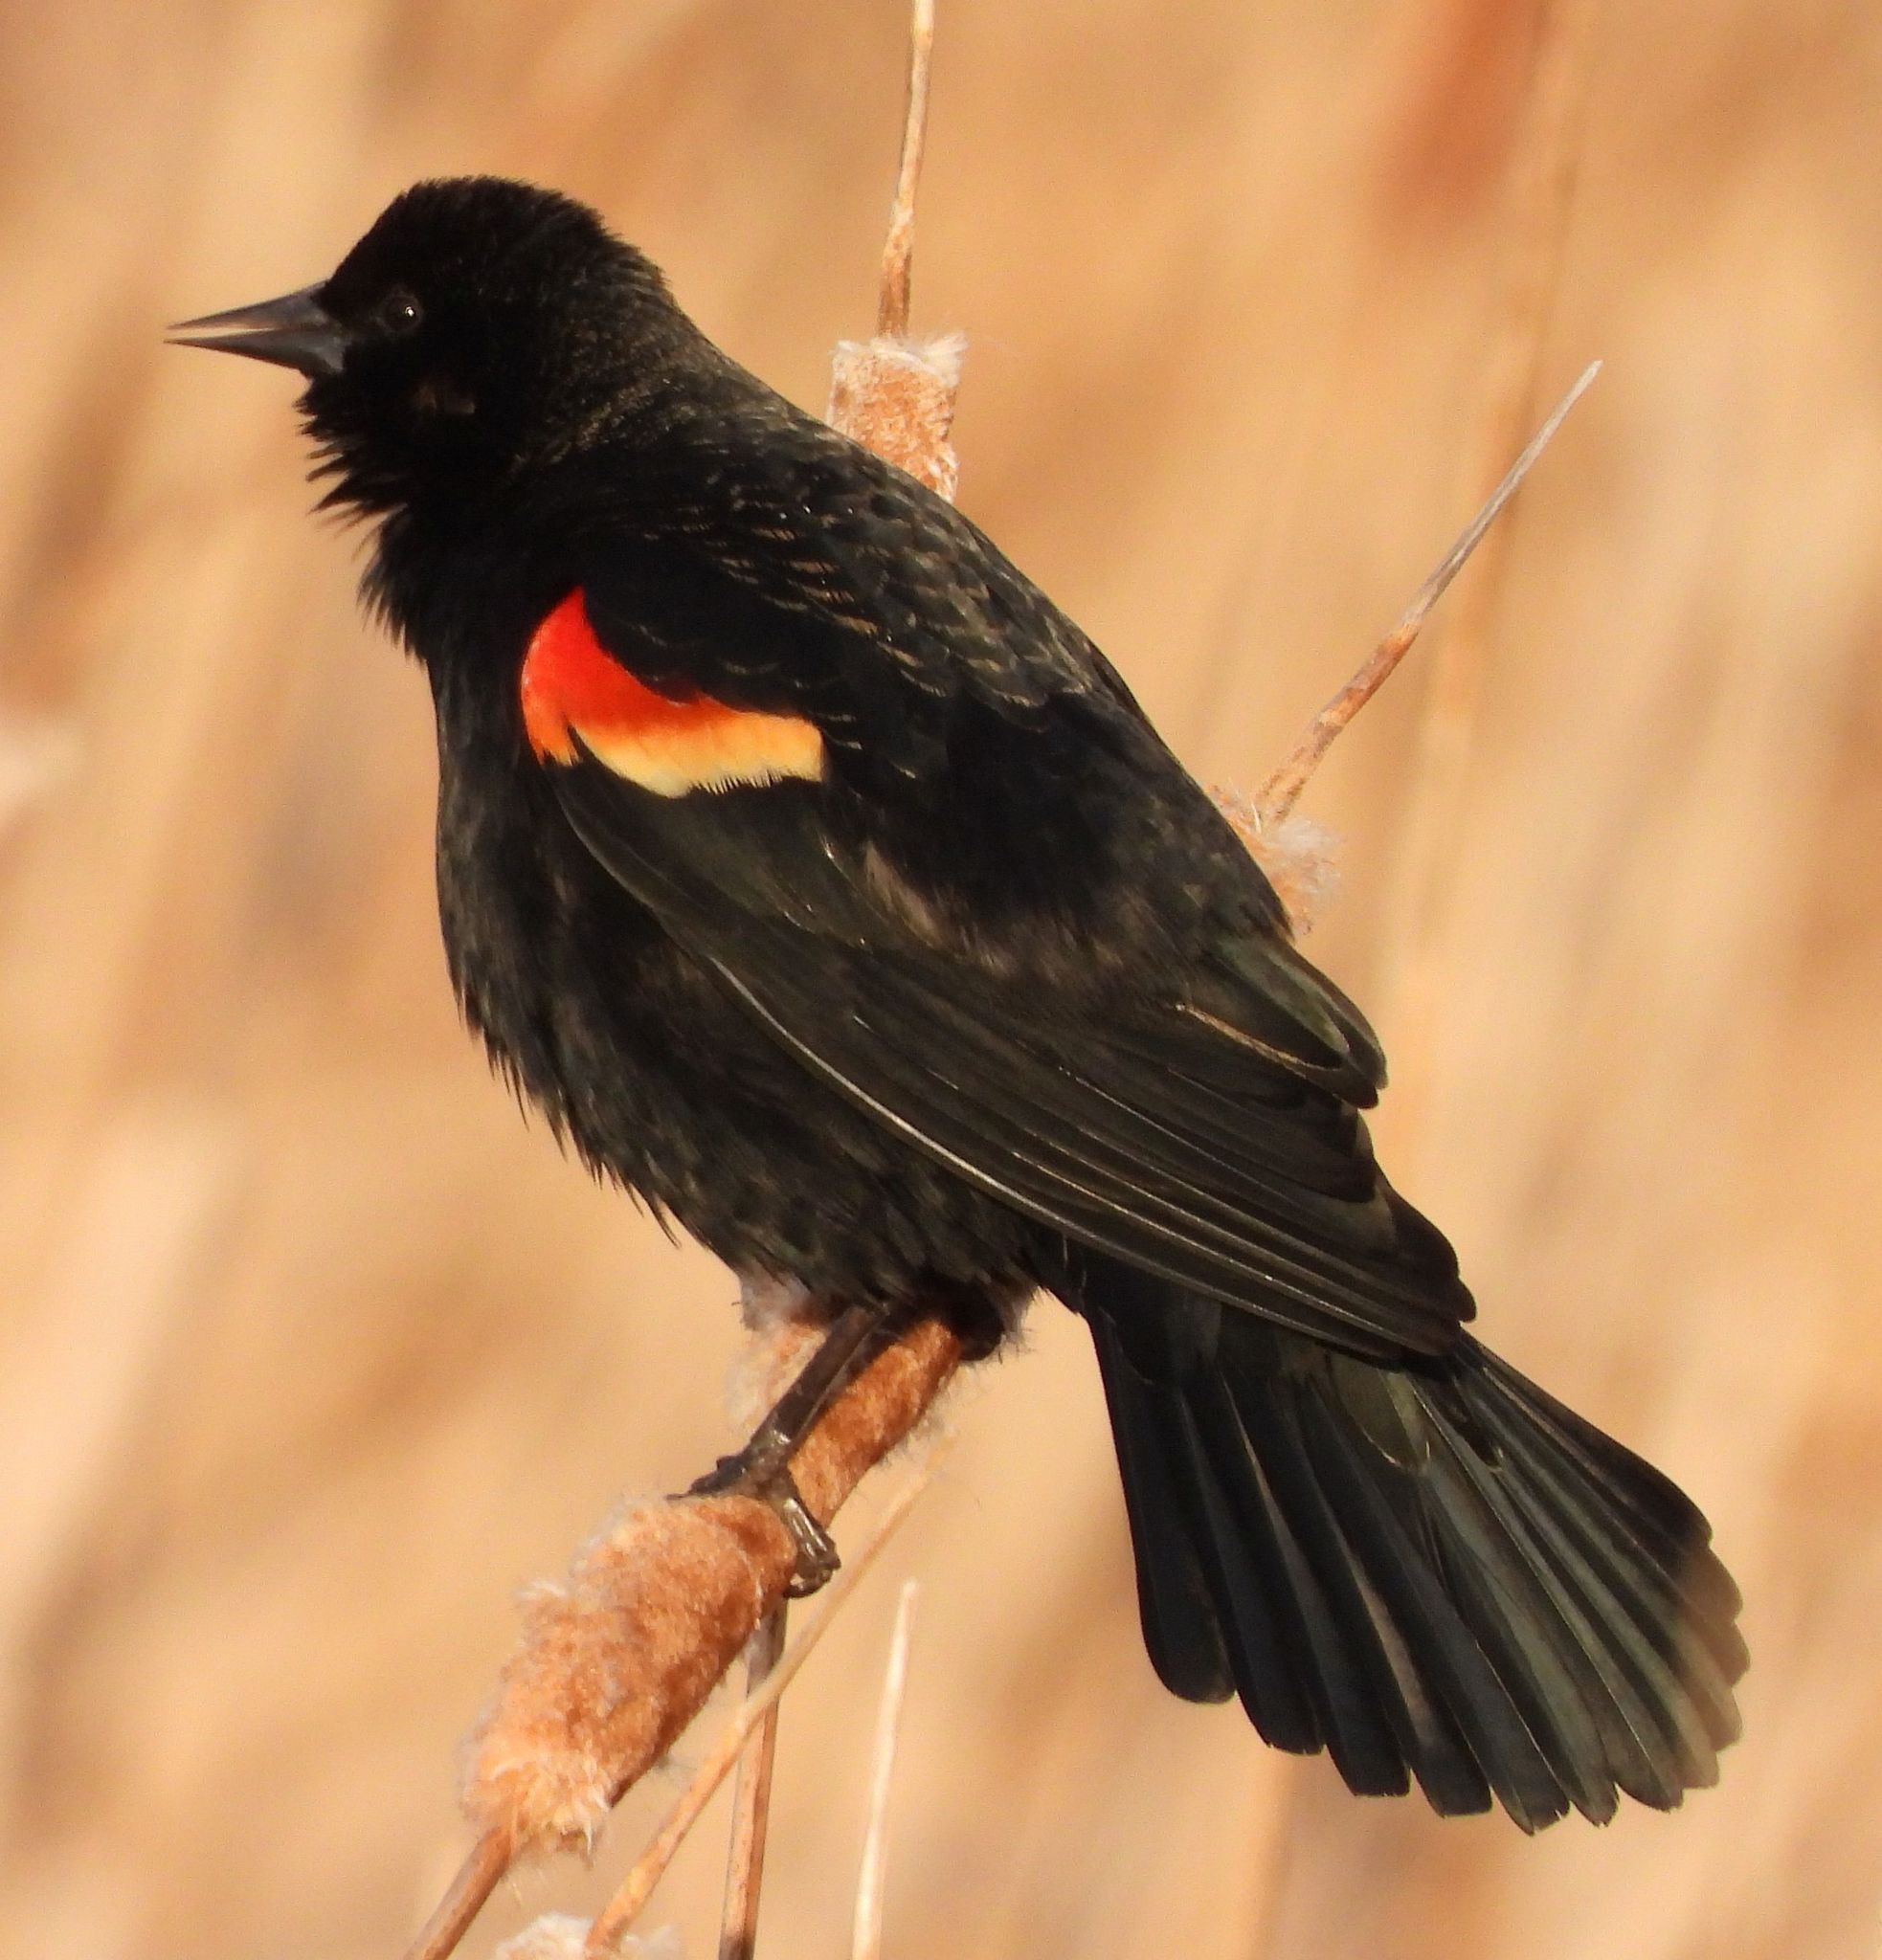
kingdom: Animalia
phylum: Chordata
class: Aves
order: Passeriformes
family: Icteridae
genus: Agelaius
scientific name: Agelaius phoeniceus
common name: Red-winged blackbird
